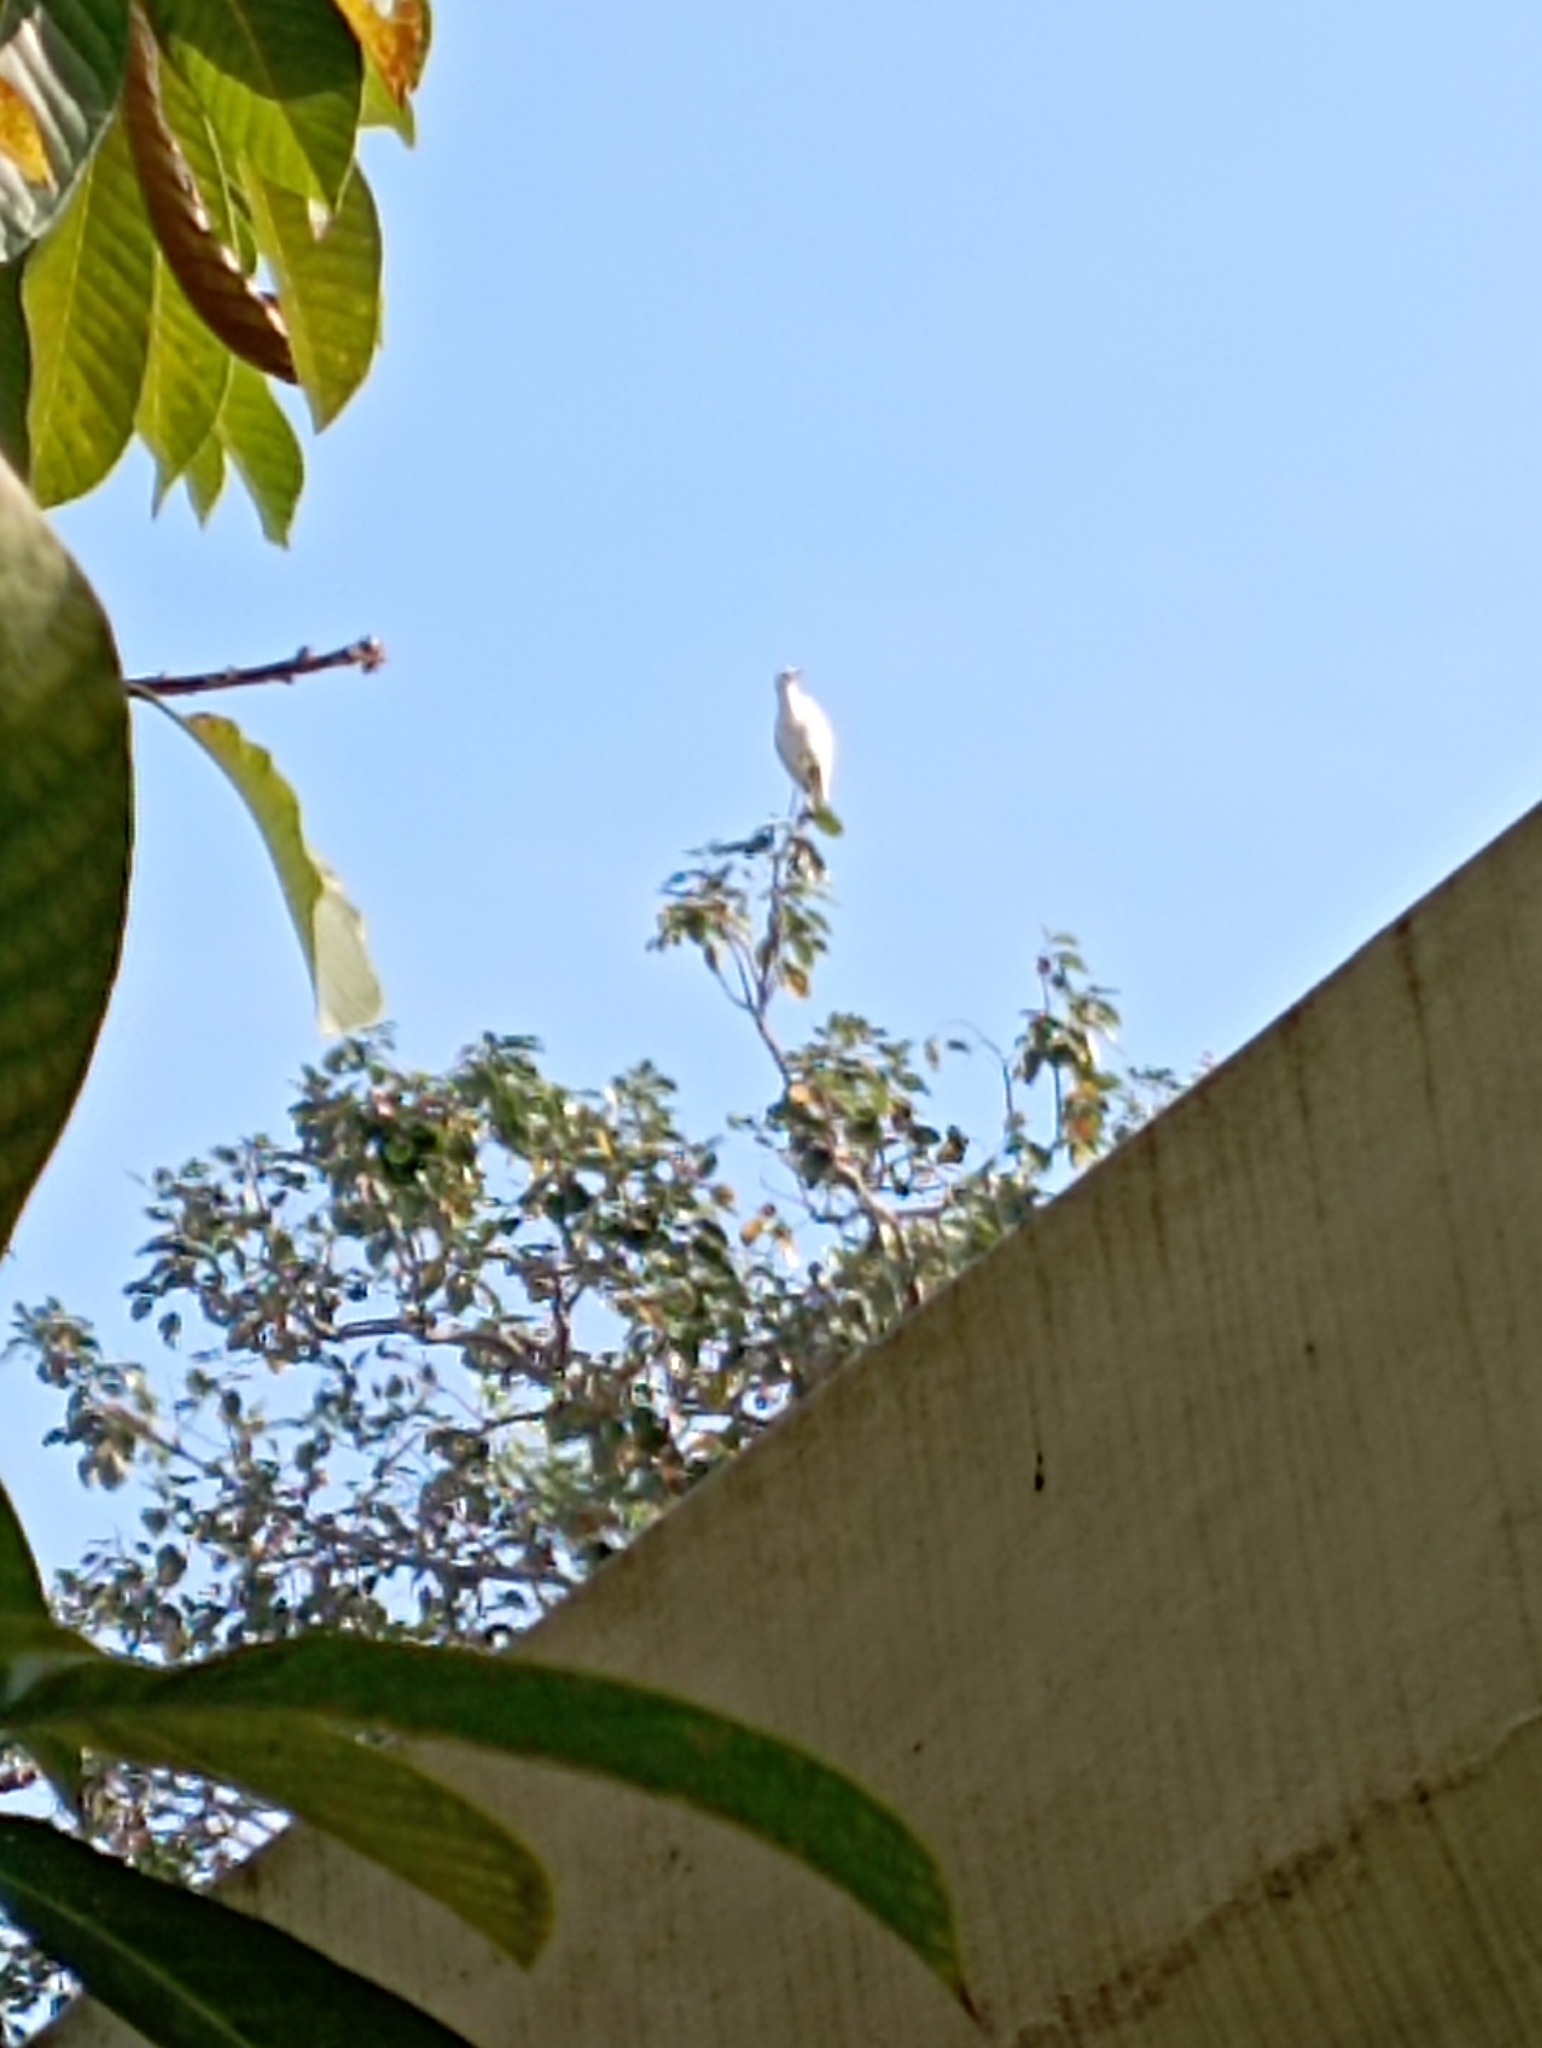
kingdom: Animalia
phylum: Chordata
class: Aves
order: Pelecaniformes
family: Ardeidae
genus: Bubulcus
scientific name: Bubulcus coromandus
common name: Eastern cattle egret
